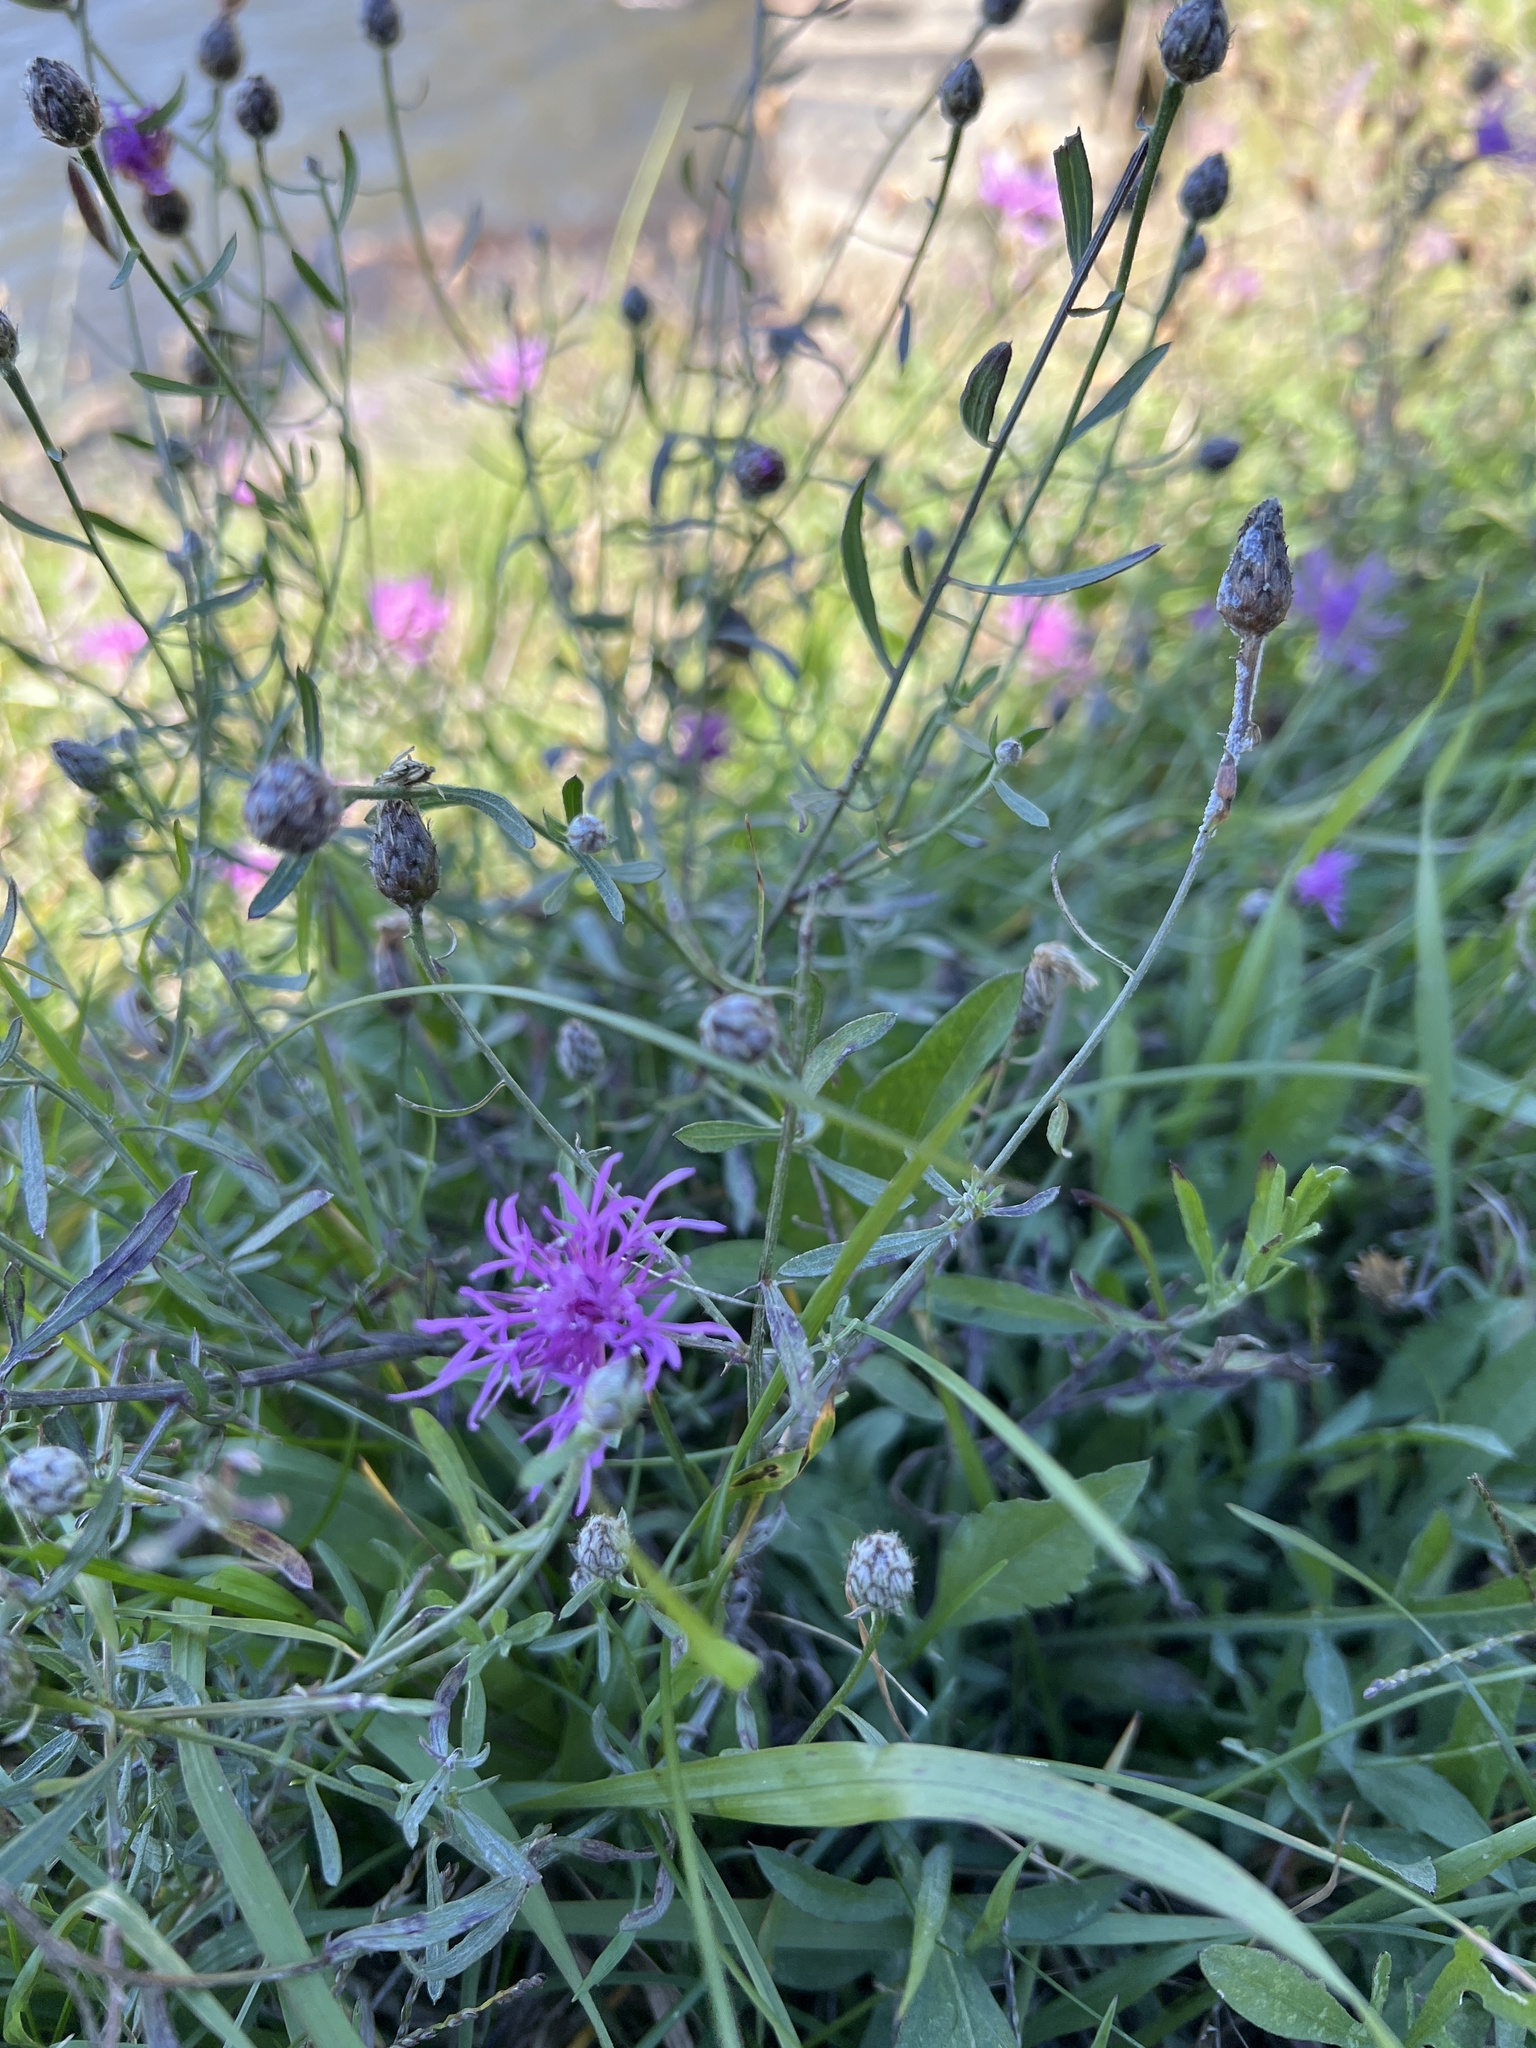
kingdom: Plantae
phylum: Tracheophyta
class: Magnoliopsida
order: Asterales
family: Asteraceae
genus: Centaurea
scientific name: Centaurea stoebe
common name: Spotted knapweed
